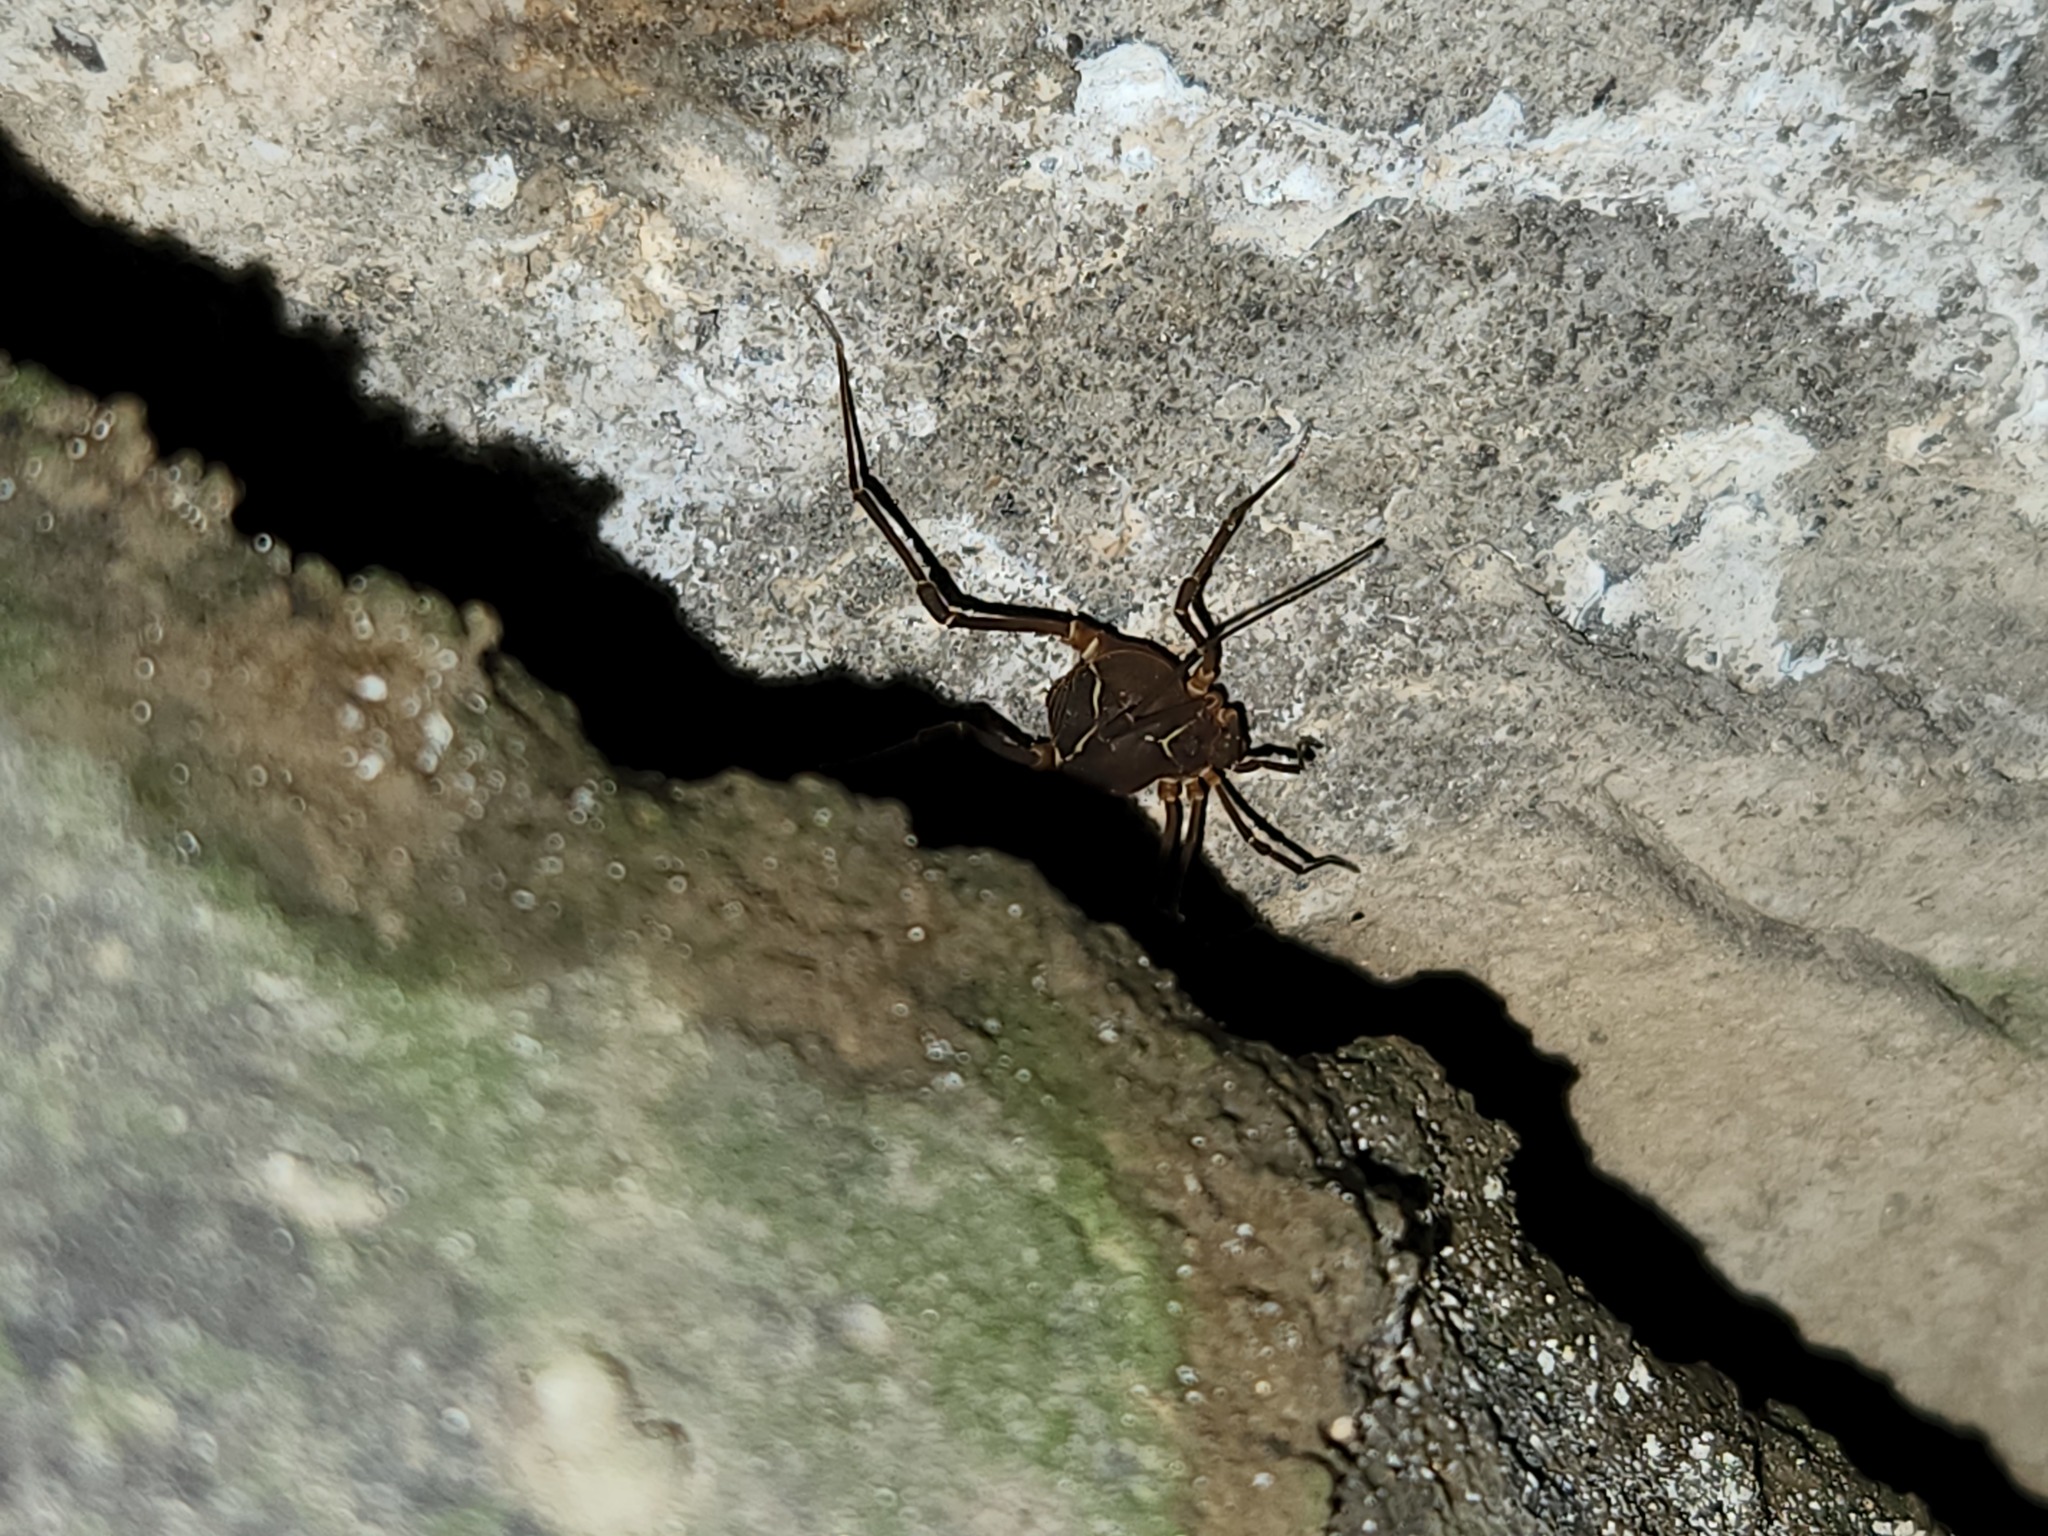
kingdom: Animalia
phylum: Arthropoda
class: Arachnida
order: Opiliones
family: Cosmetidae
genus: Libitioides
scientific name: Libitioides sayi
